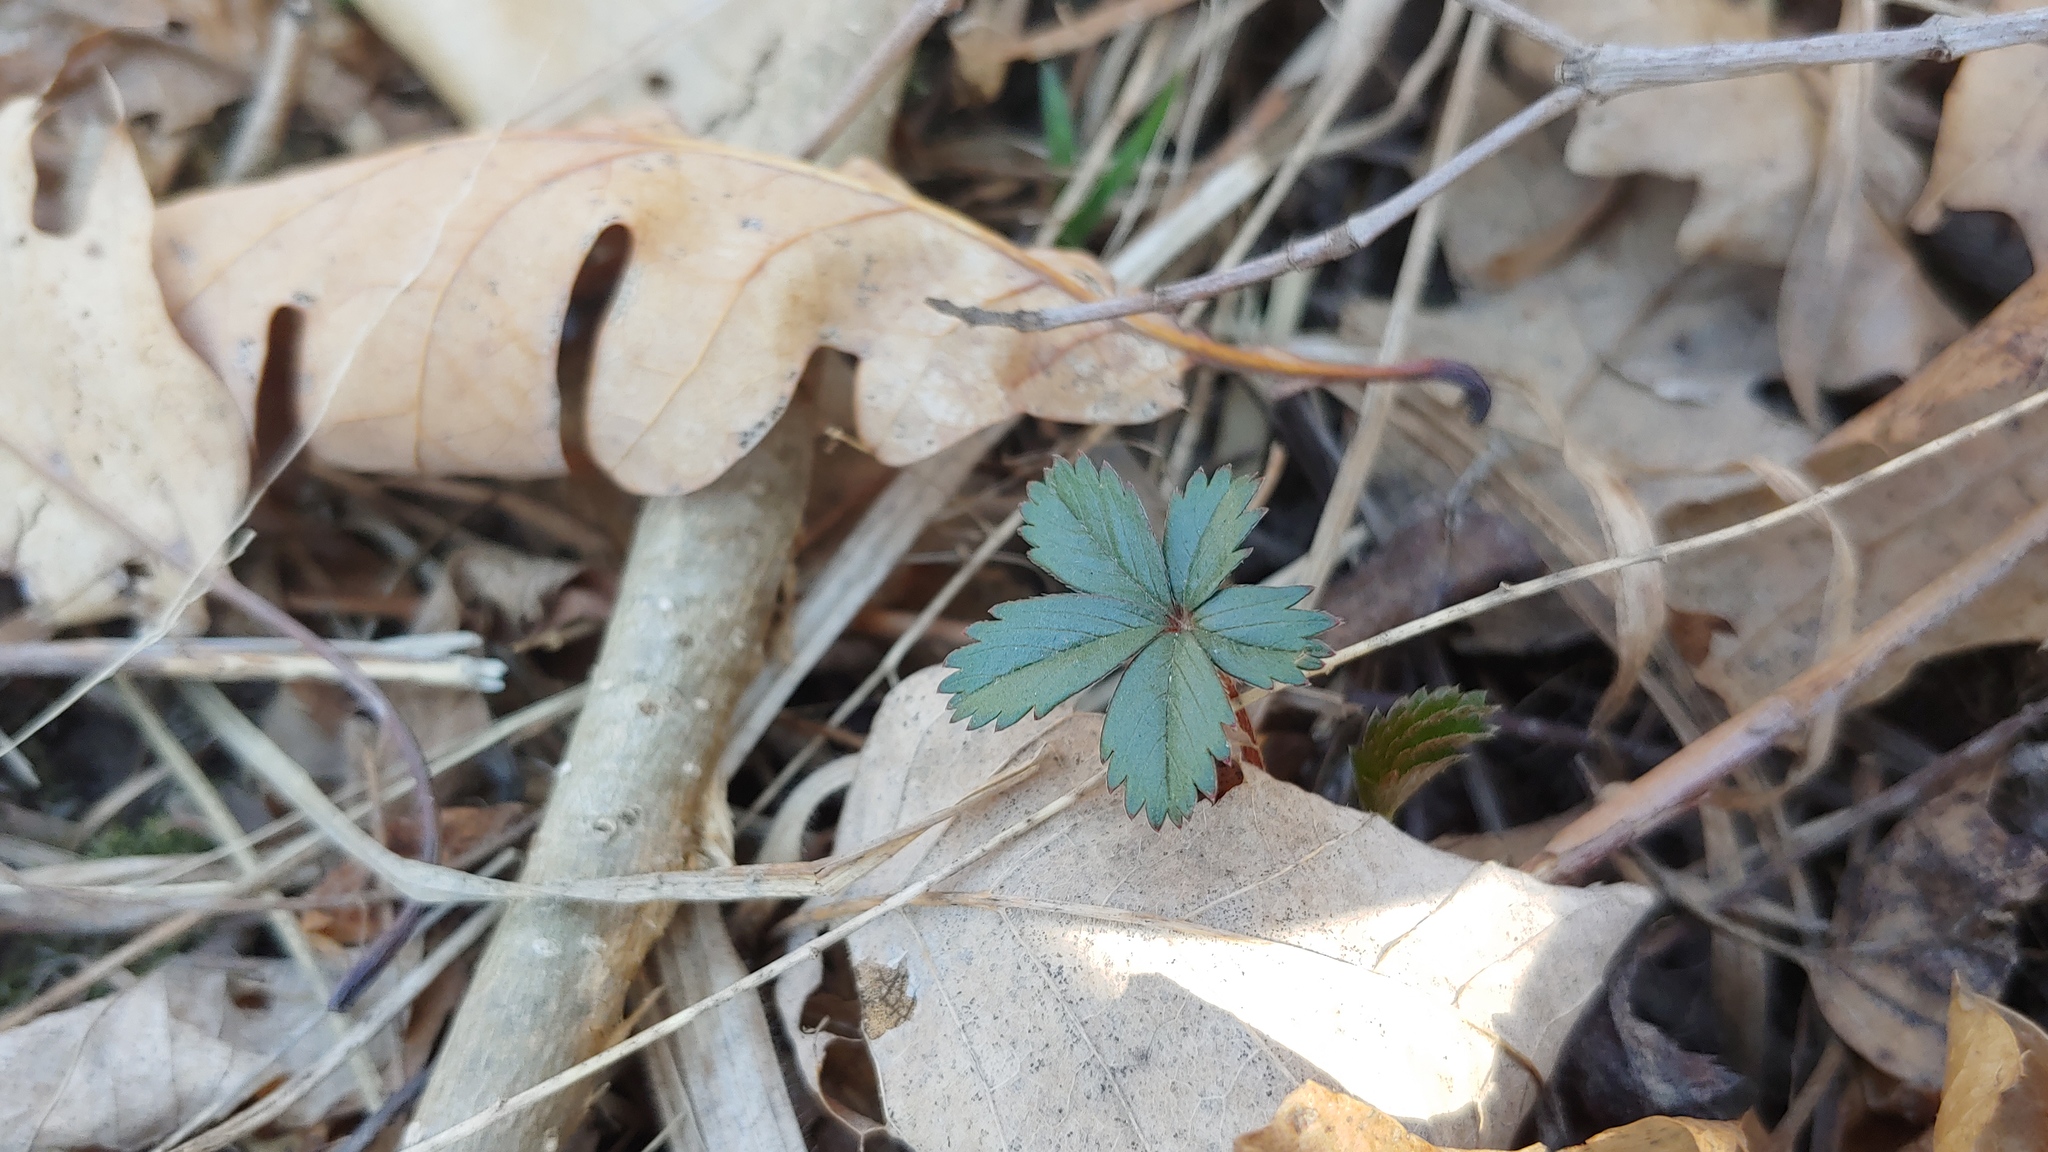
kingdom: Plantae
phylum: Tracheophyta
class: Magnoliopsida
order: Rosales
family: Rosaceae
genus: Potentilla
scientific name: Potentilla simplex
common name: Old field cinquefoil
